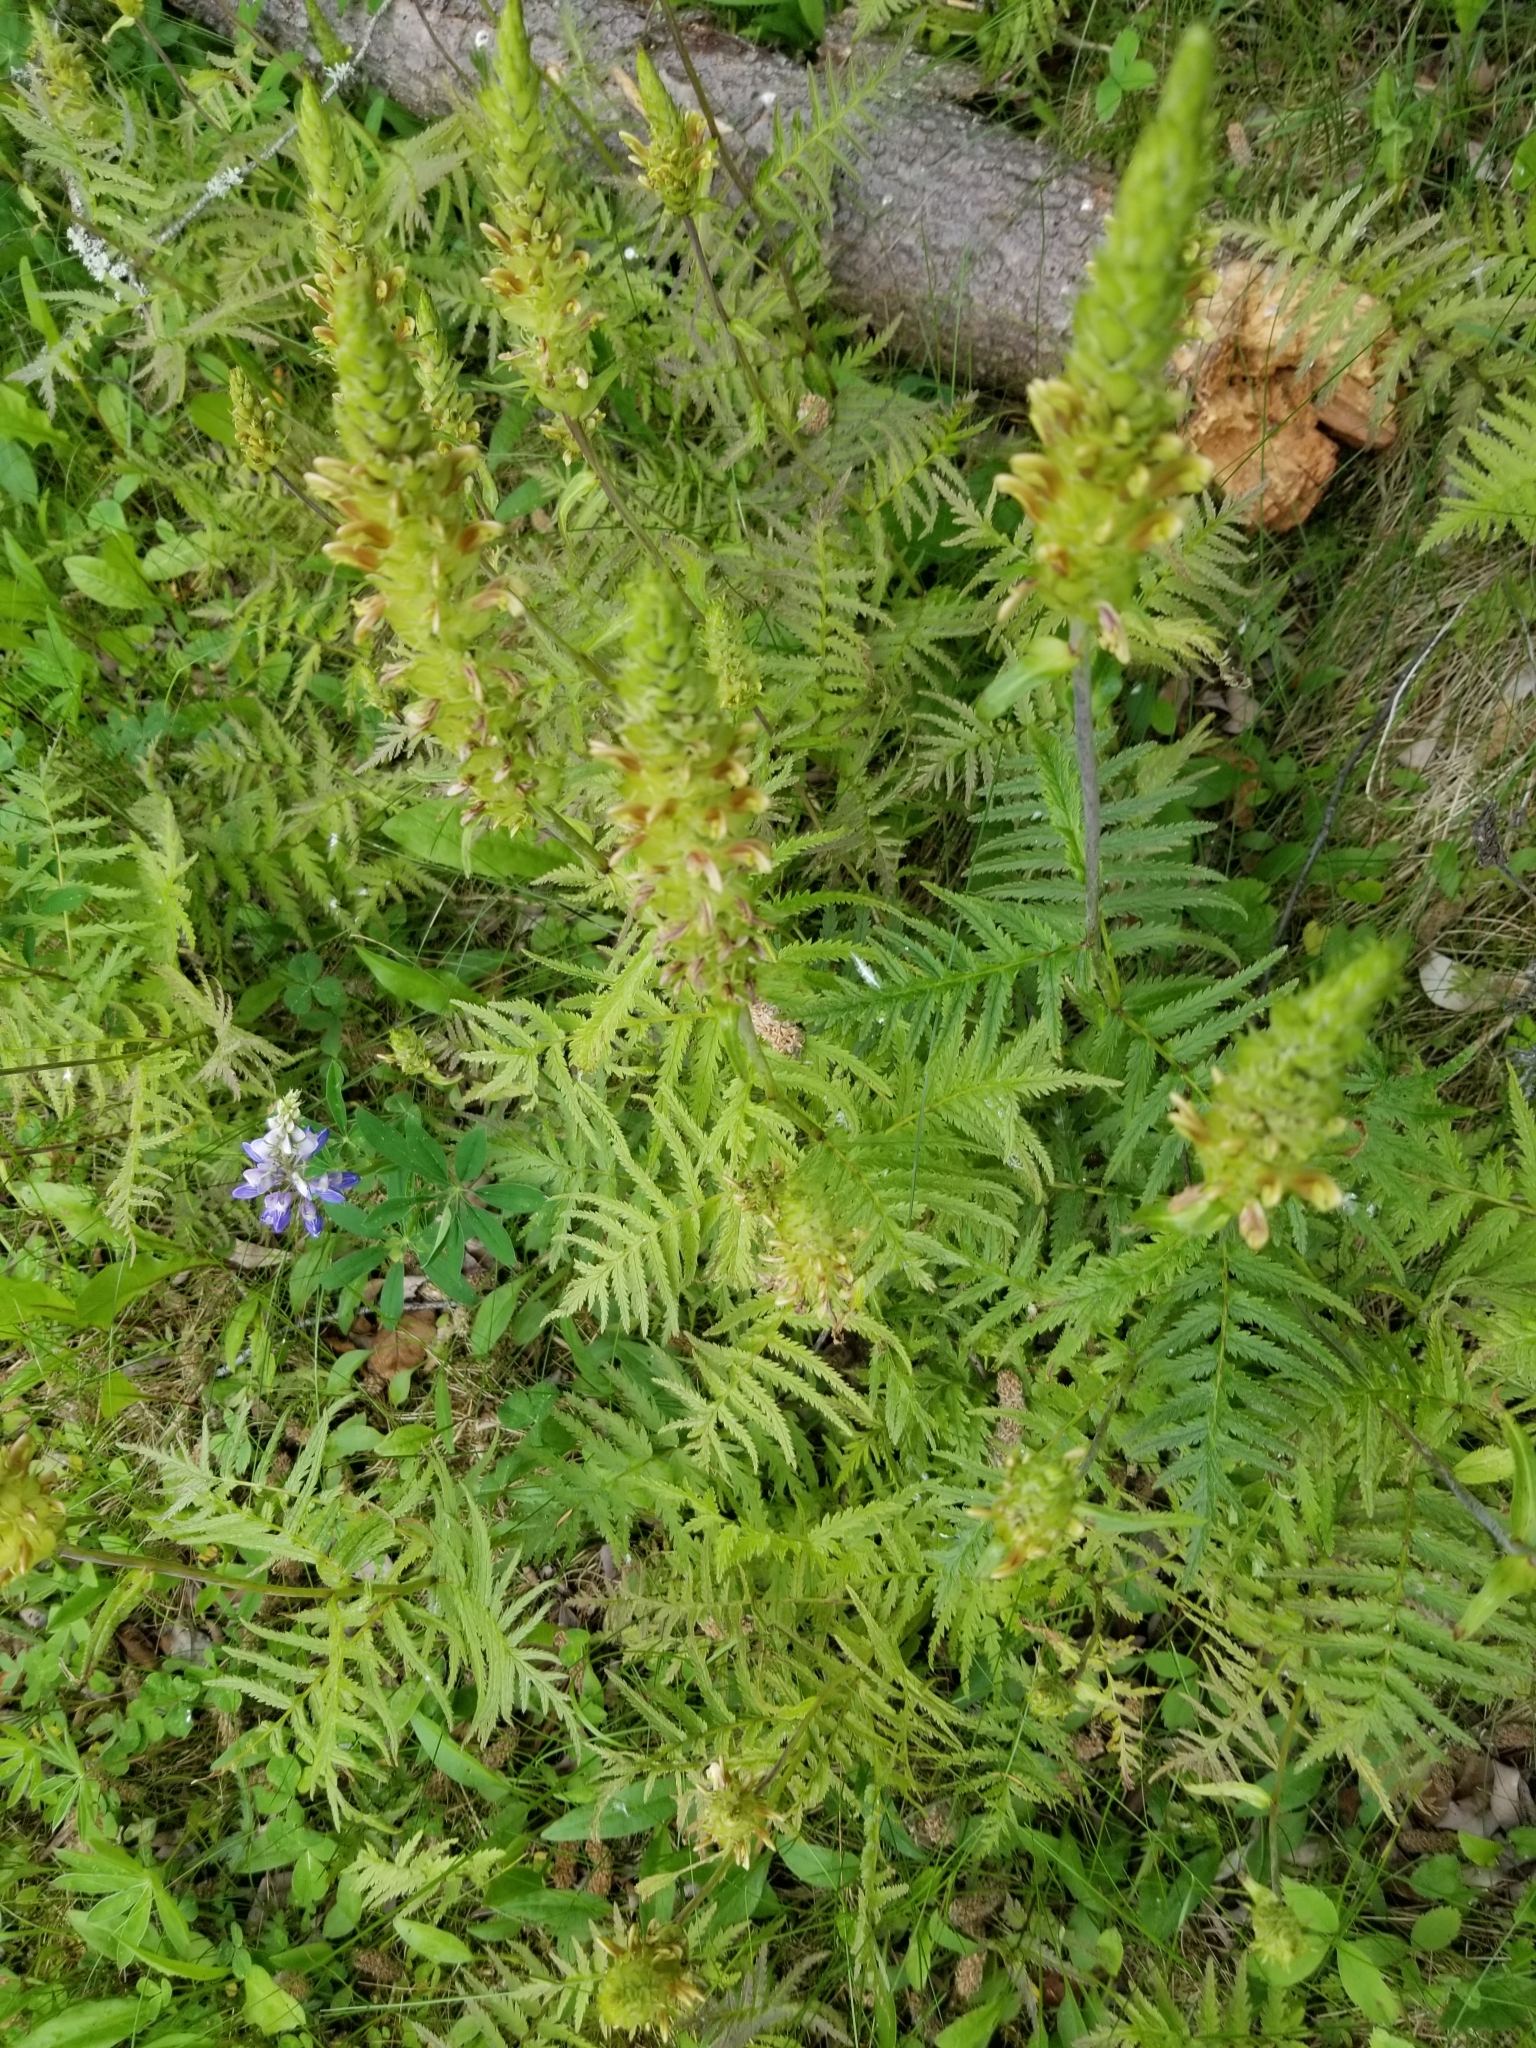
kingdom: Plantae
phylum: Tracheophyta
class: Magnoliopsida
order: Lamiales
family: Orobanchaceae
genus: Pedicularis
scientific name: Pedicularis bracteosa
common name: Bracted lousewort
